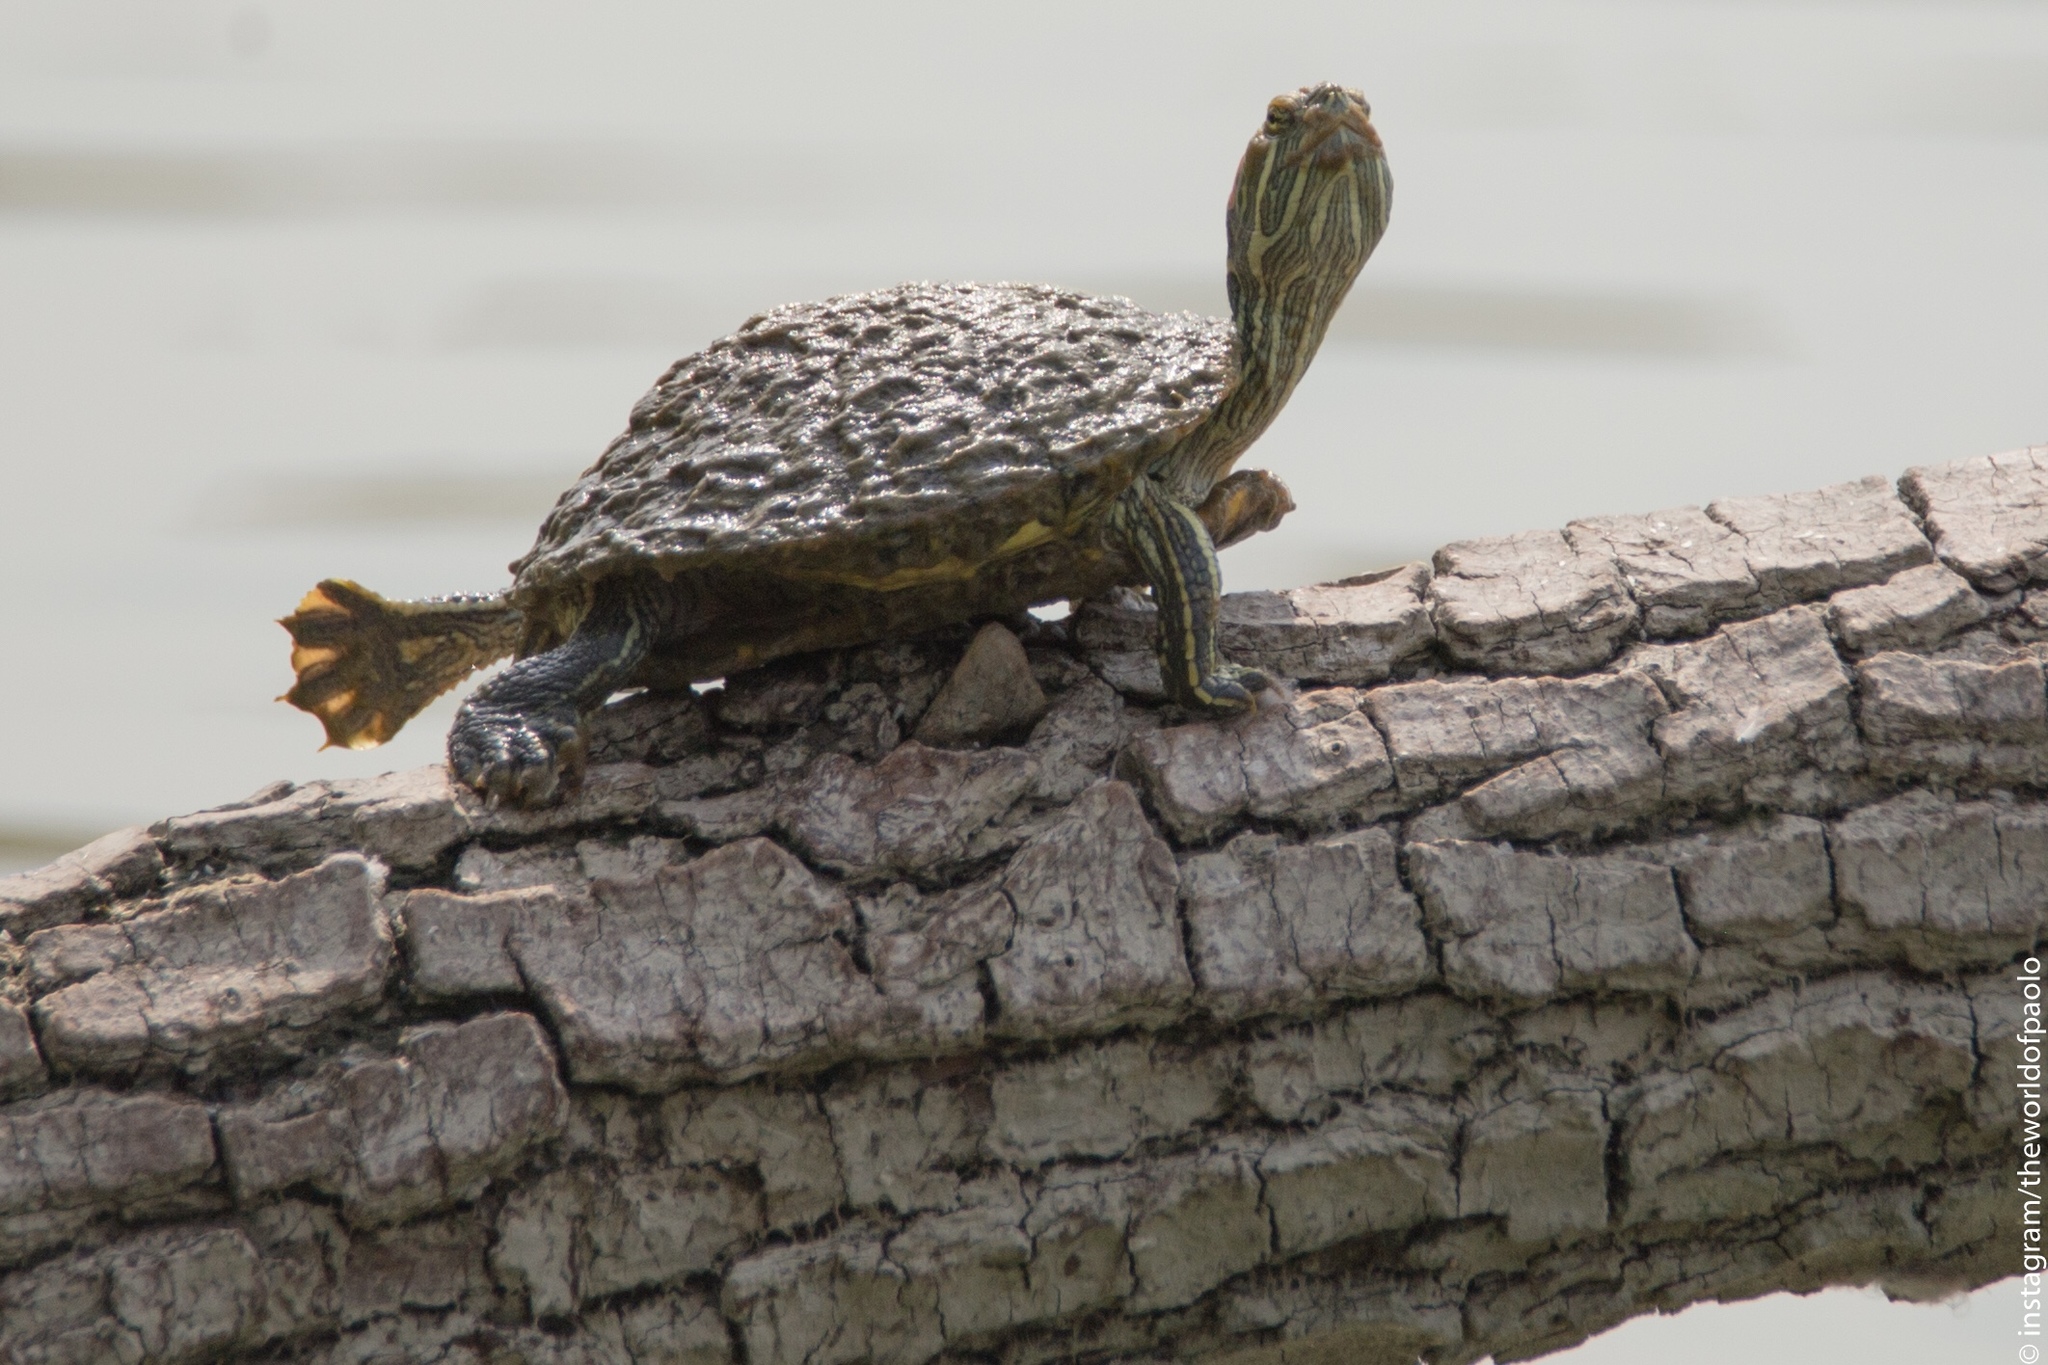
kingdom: Animalia
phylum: Chordata
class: Testudines
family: Emydidae
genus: Trachemys
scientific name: Trachemys scripta
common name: Slider
